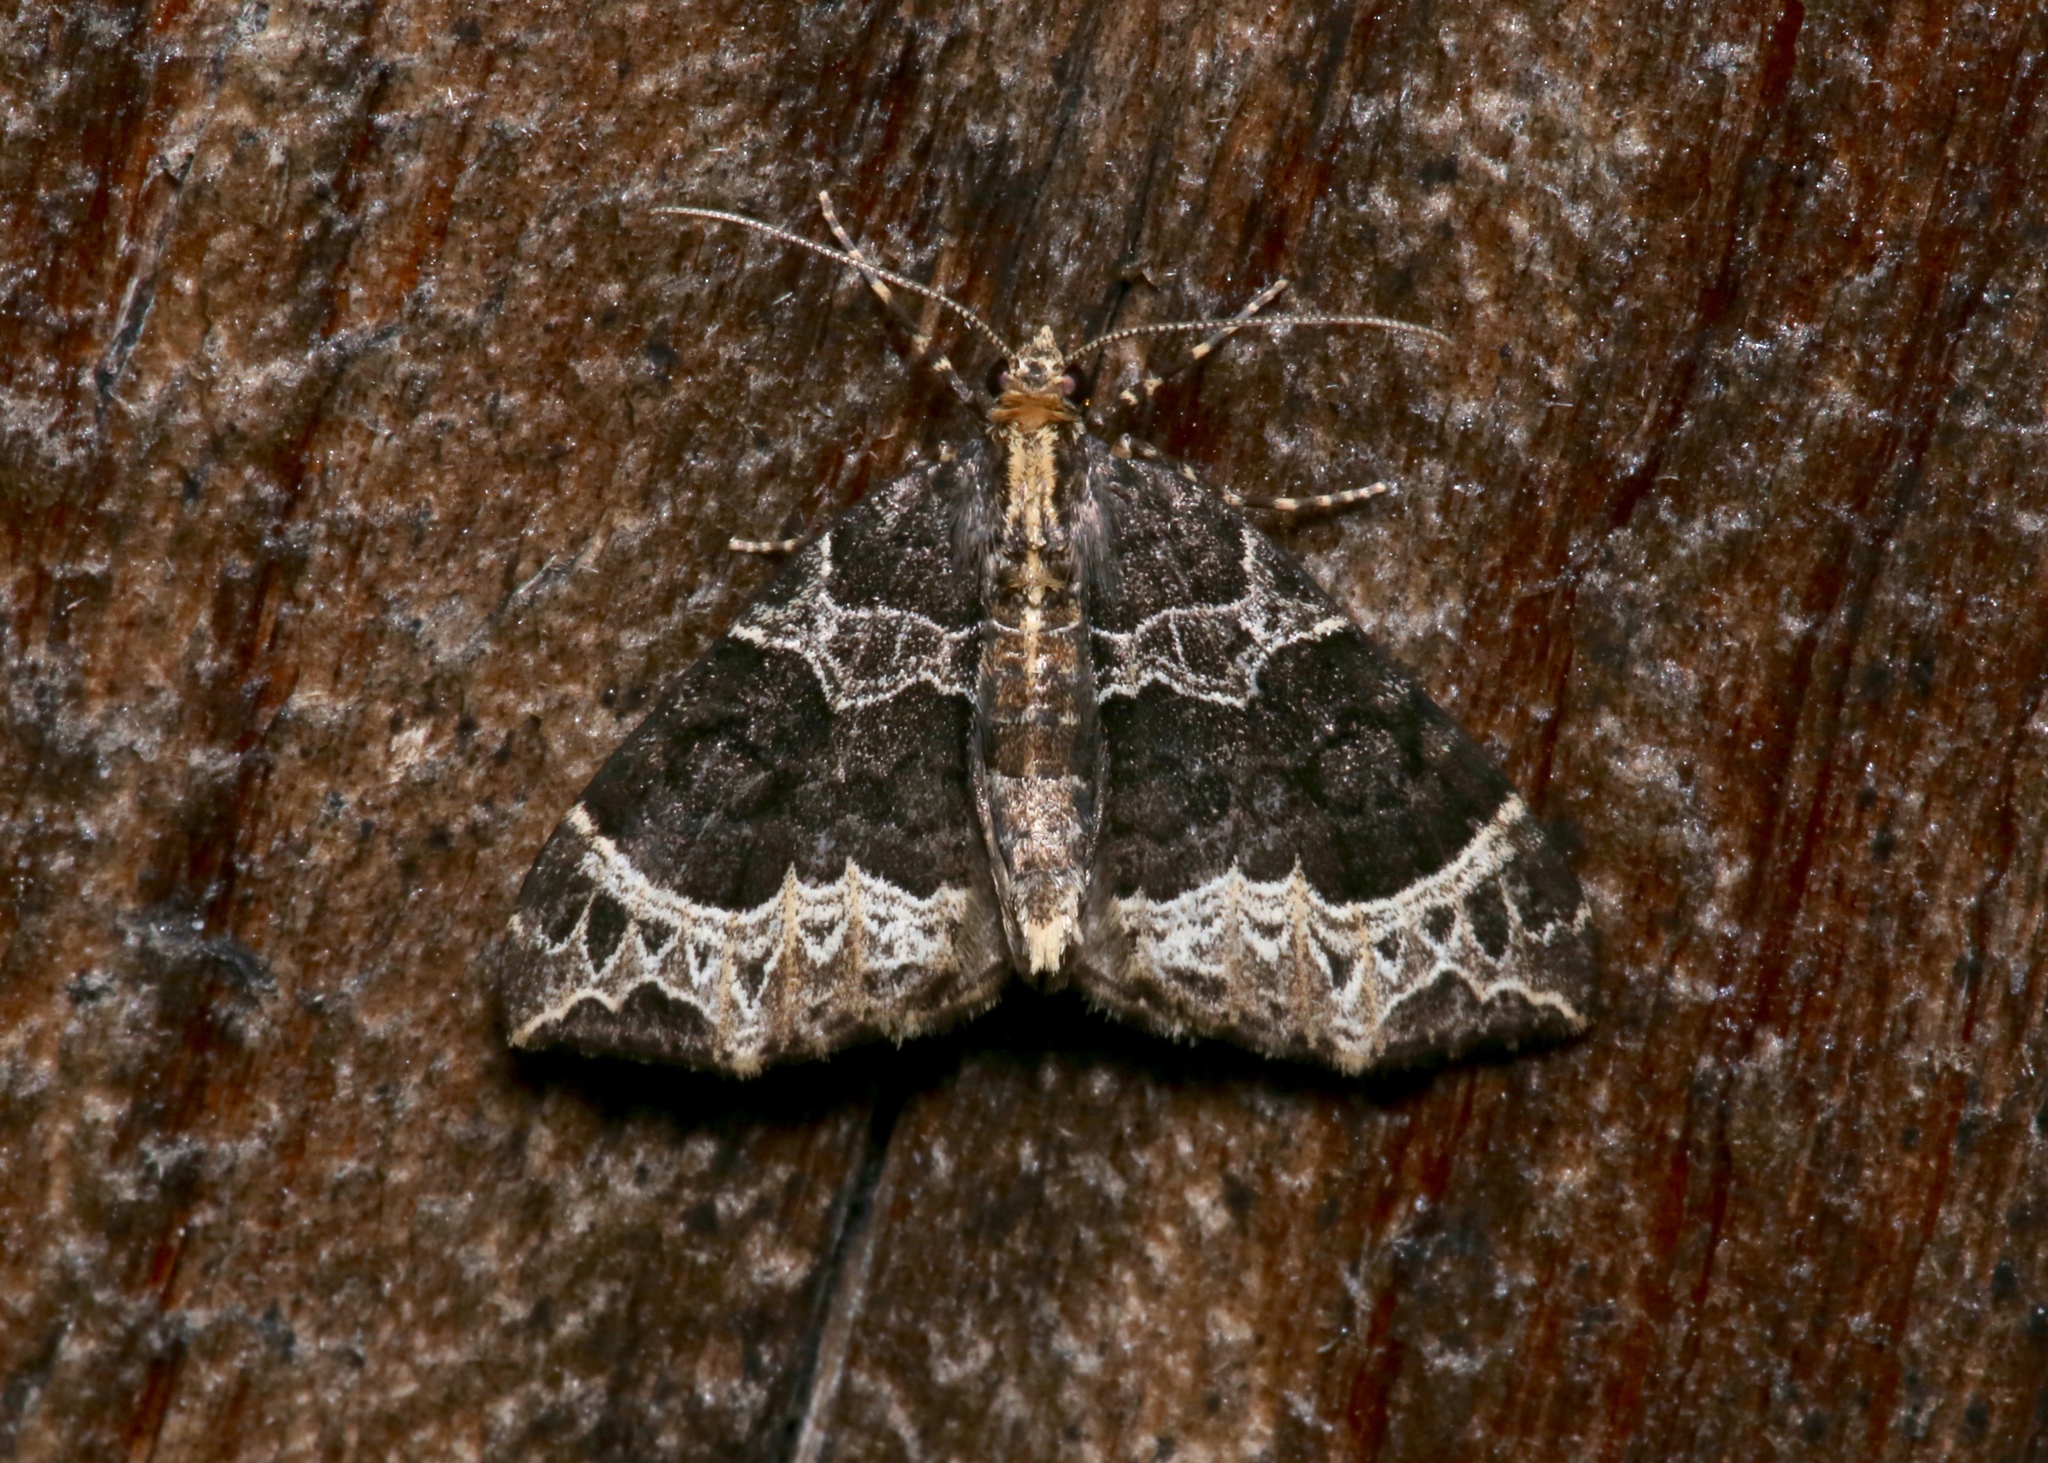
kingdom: Animalia
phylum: Arthropoda
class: Insecta
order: Lepidoptera
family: Geometridae
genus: Ecliptopera
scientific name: Ecliptopera silaceata
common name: Small phoenix
